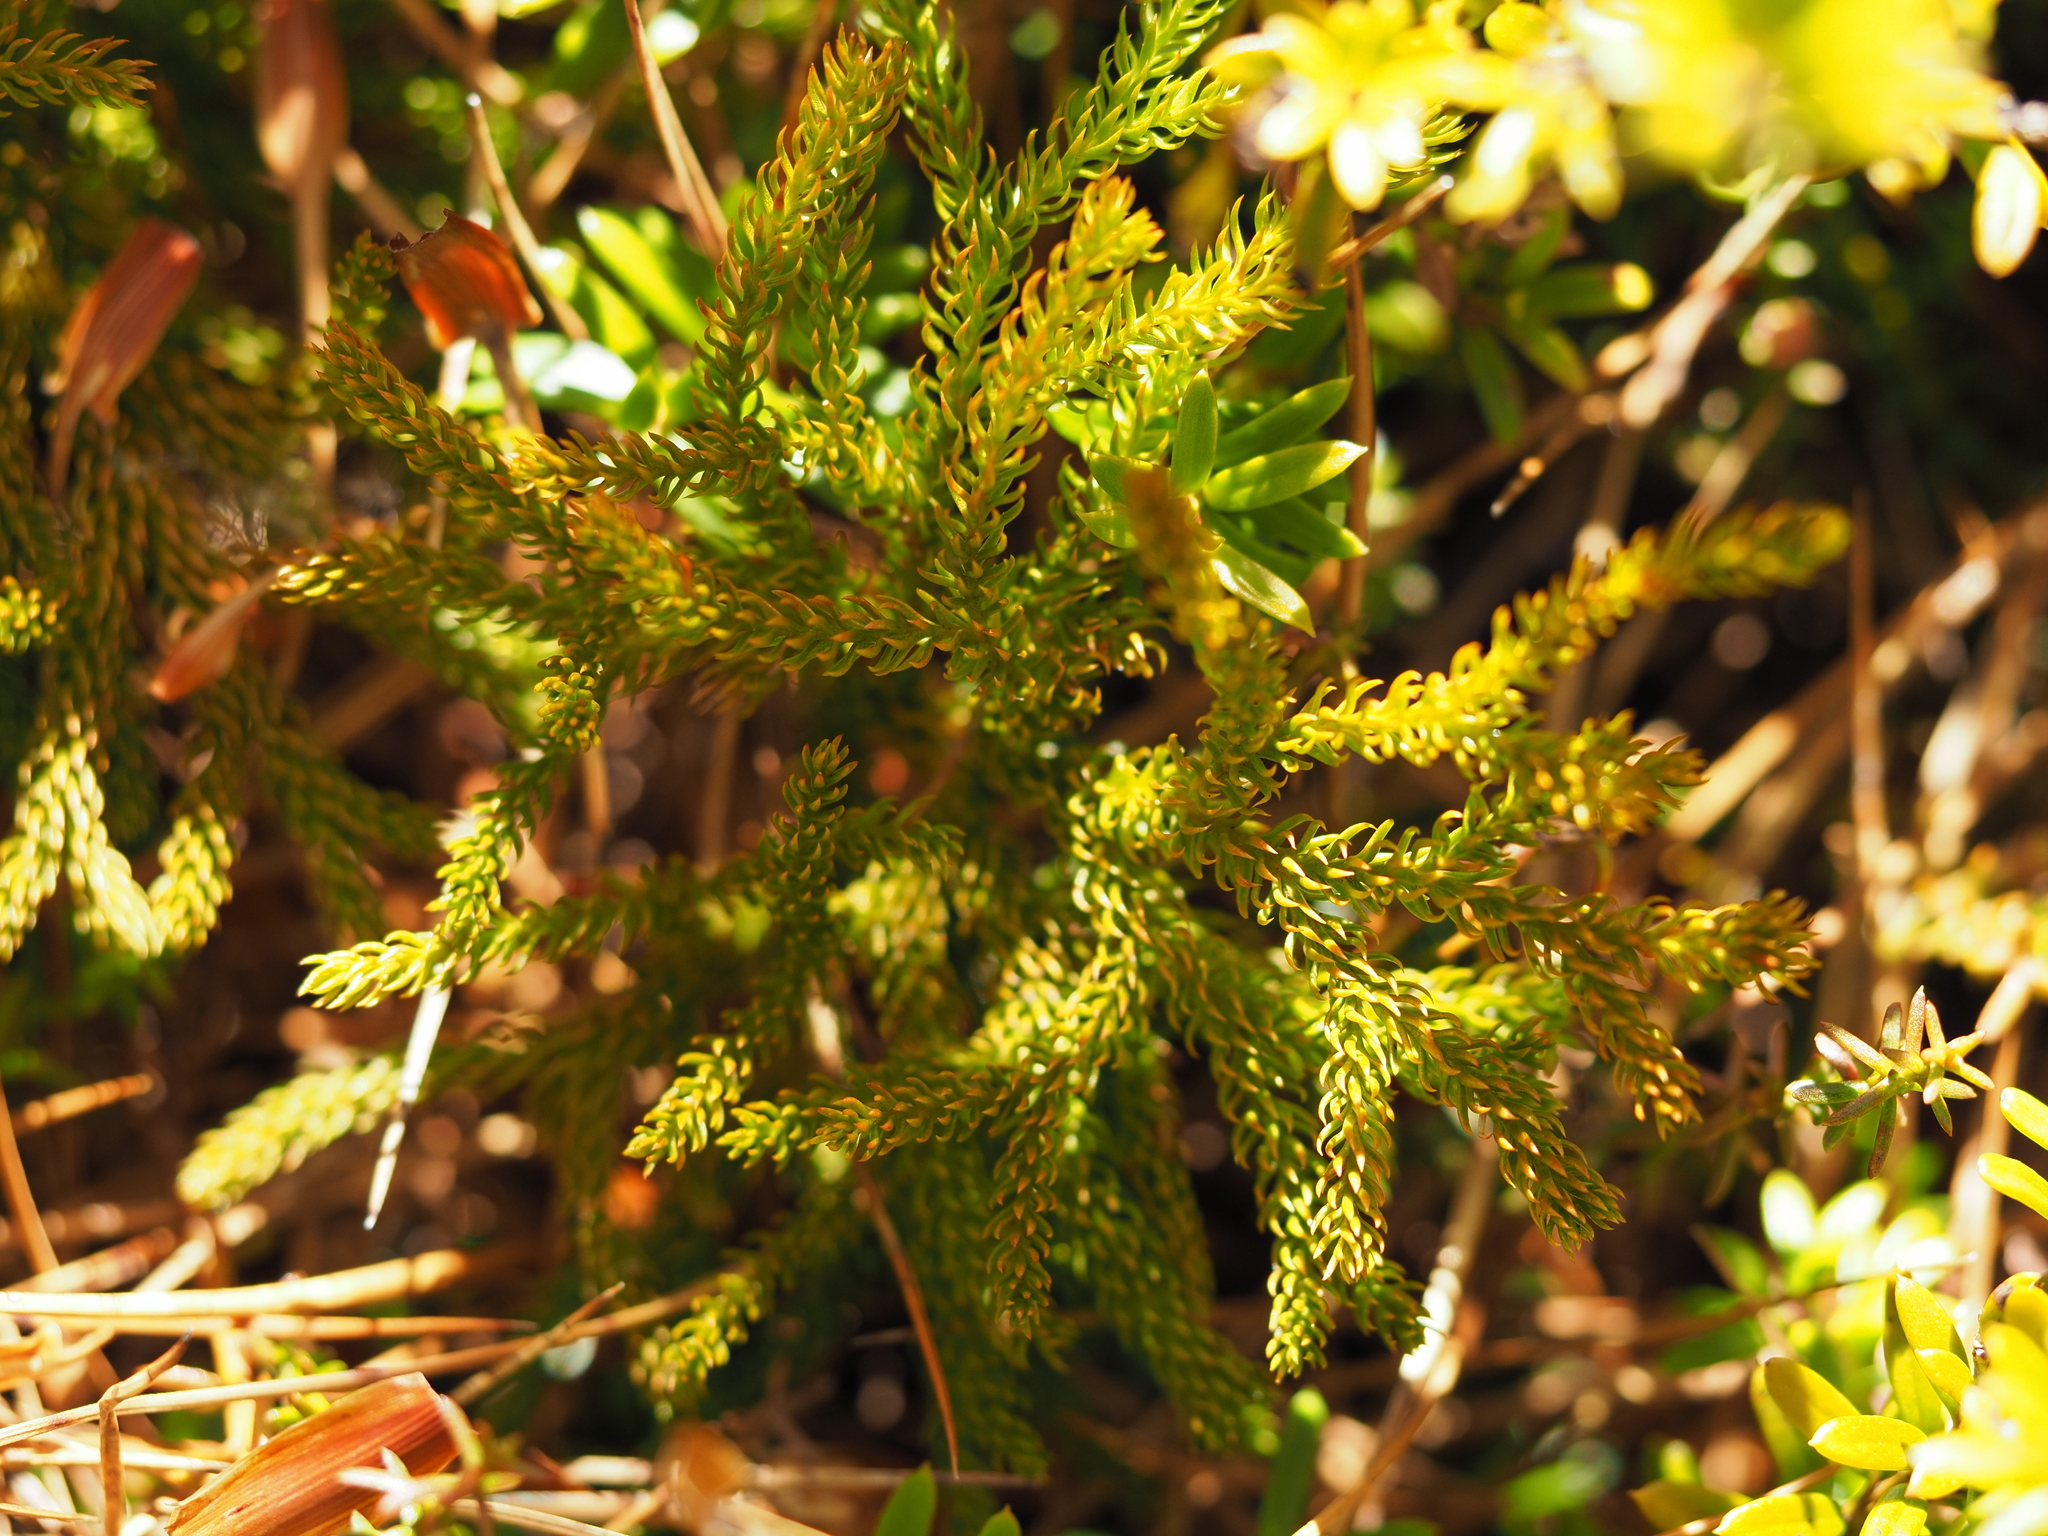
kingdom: Plantae
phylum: Tracheophyta
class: Lycopodiopsida
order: Lycopodiales
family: Lycopodiaceae
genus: Austrolycopodium
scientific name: Austrolycopodium fastigiatum
